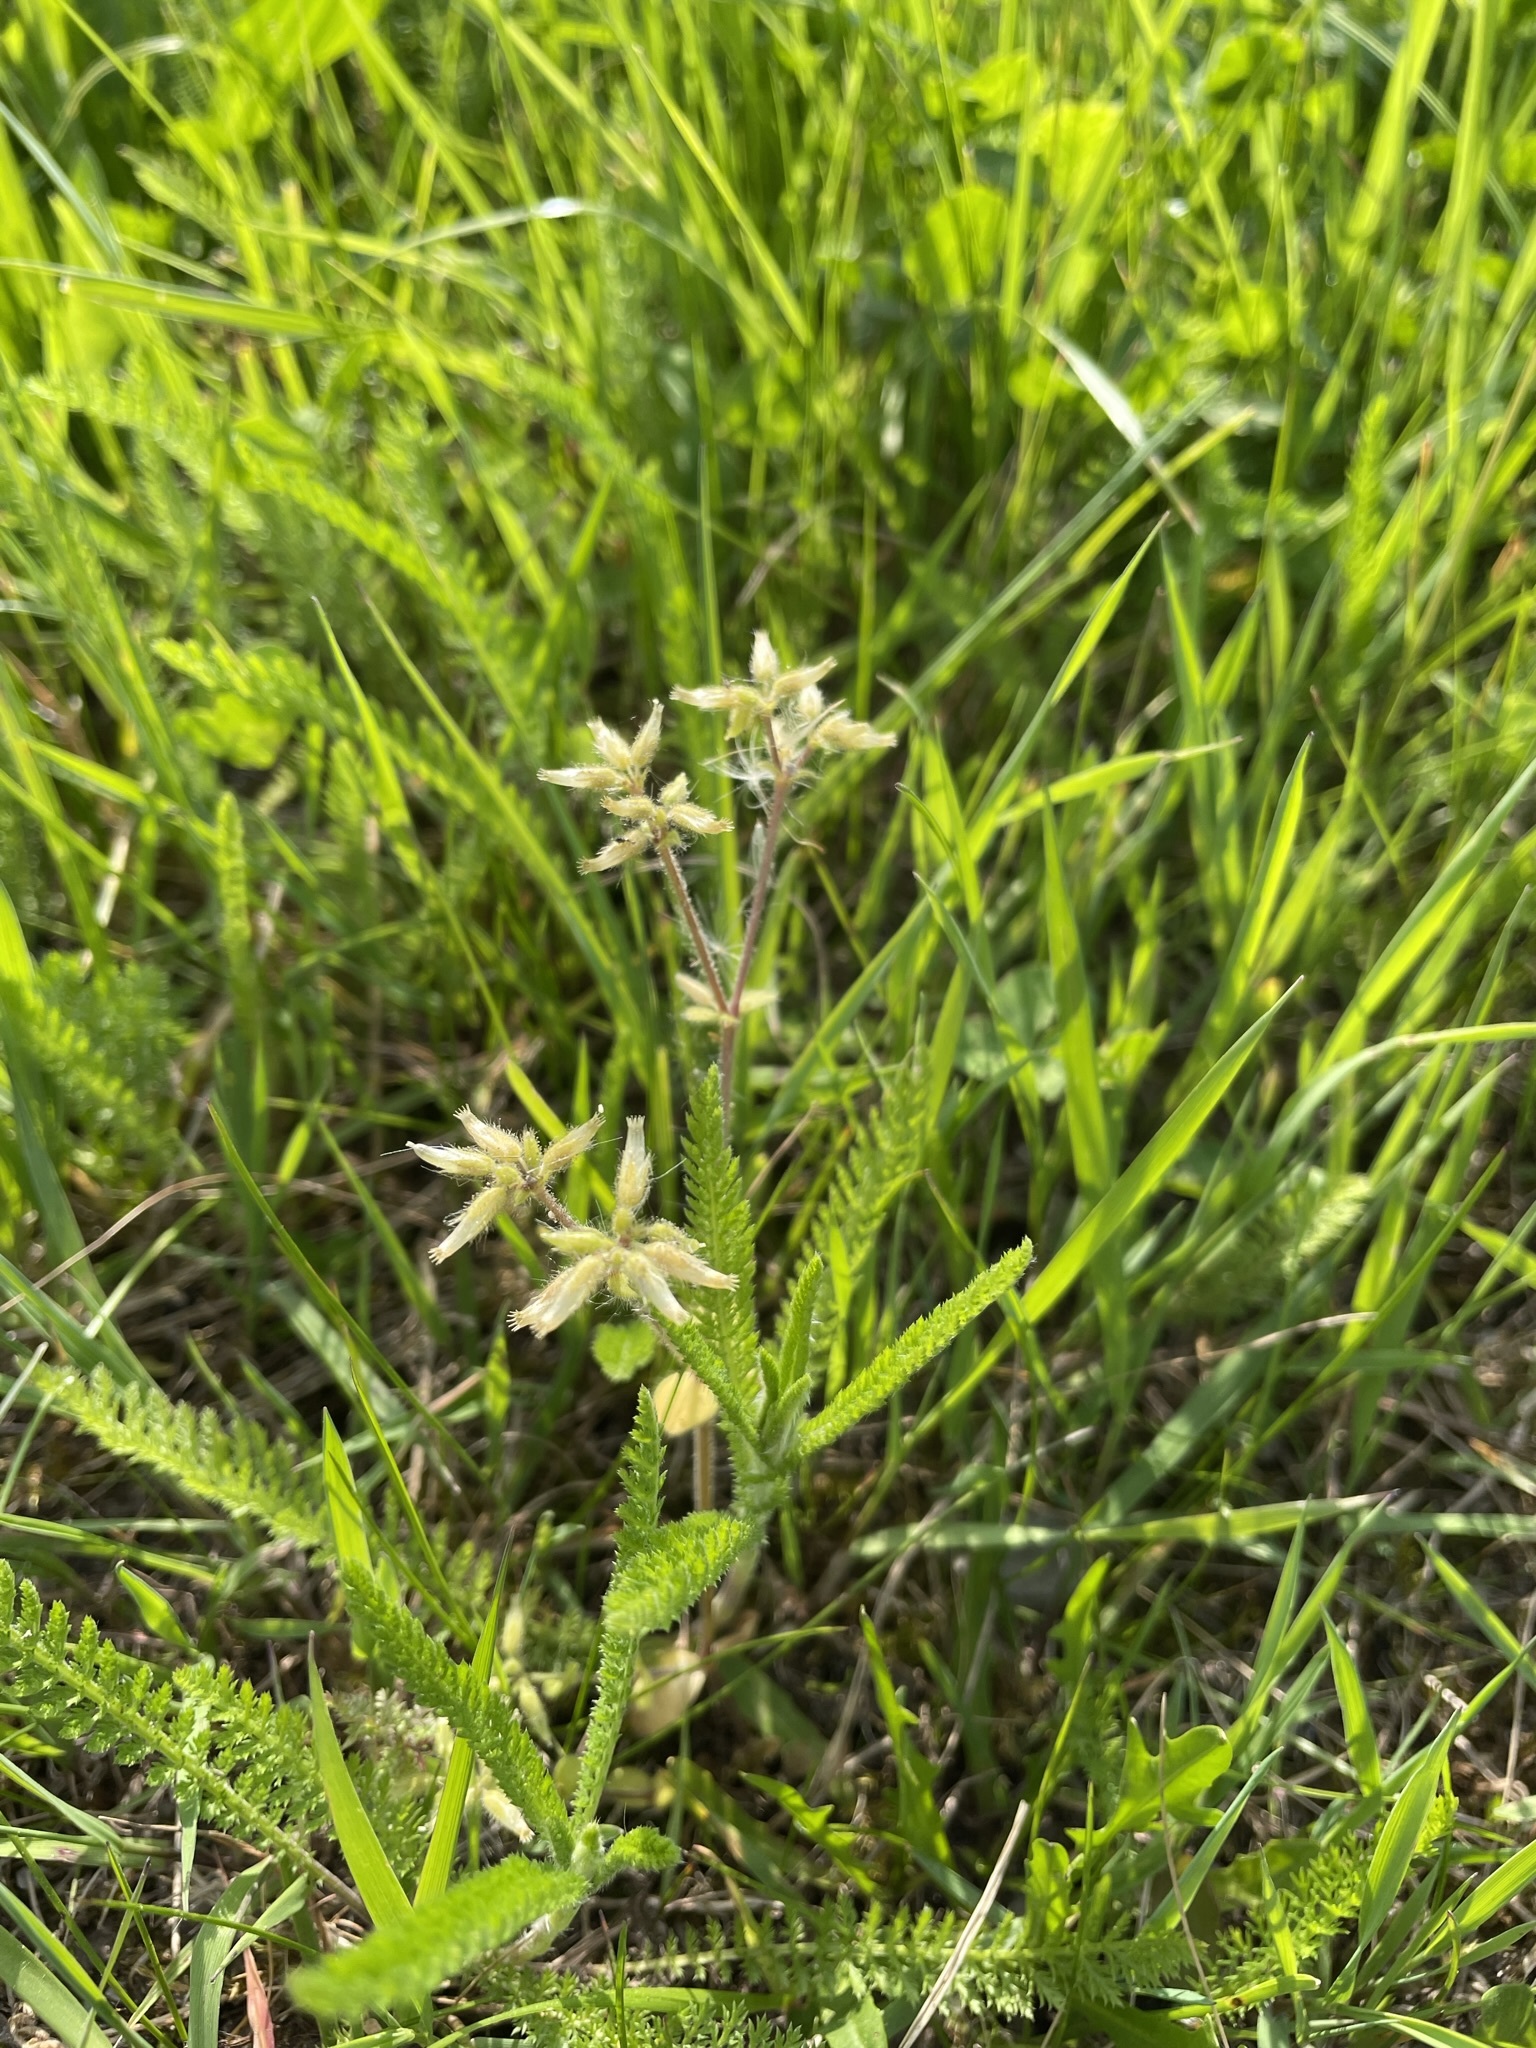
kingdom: Plantae
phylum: Tracheophyta
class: Magnoliopsida
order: Caryophyllales
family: Caryophyllaceae
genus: Cerastium
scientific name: Cerastium glomeratum
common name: Sticky chickweed
